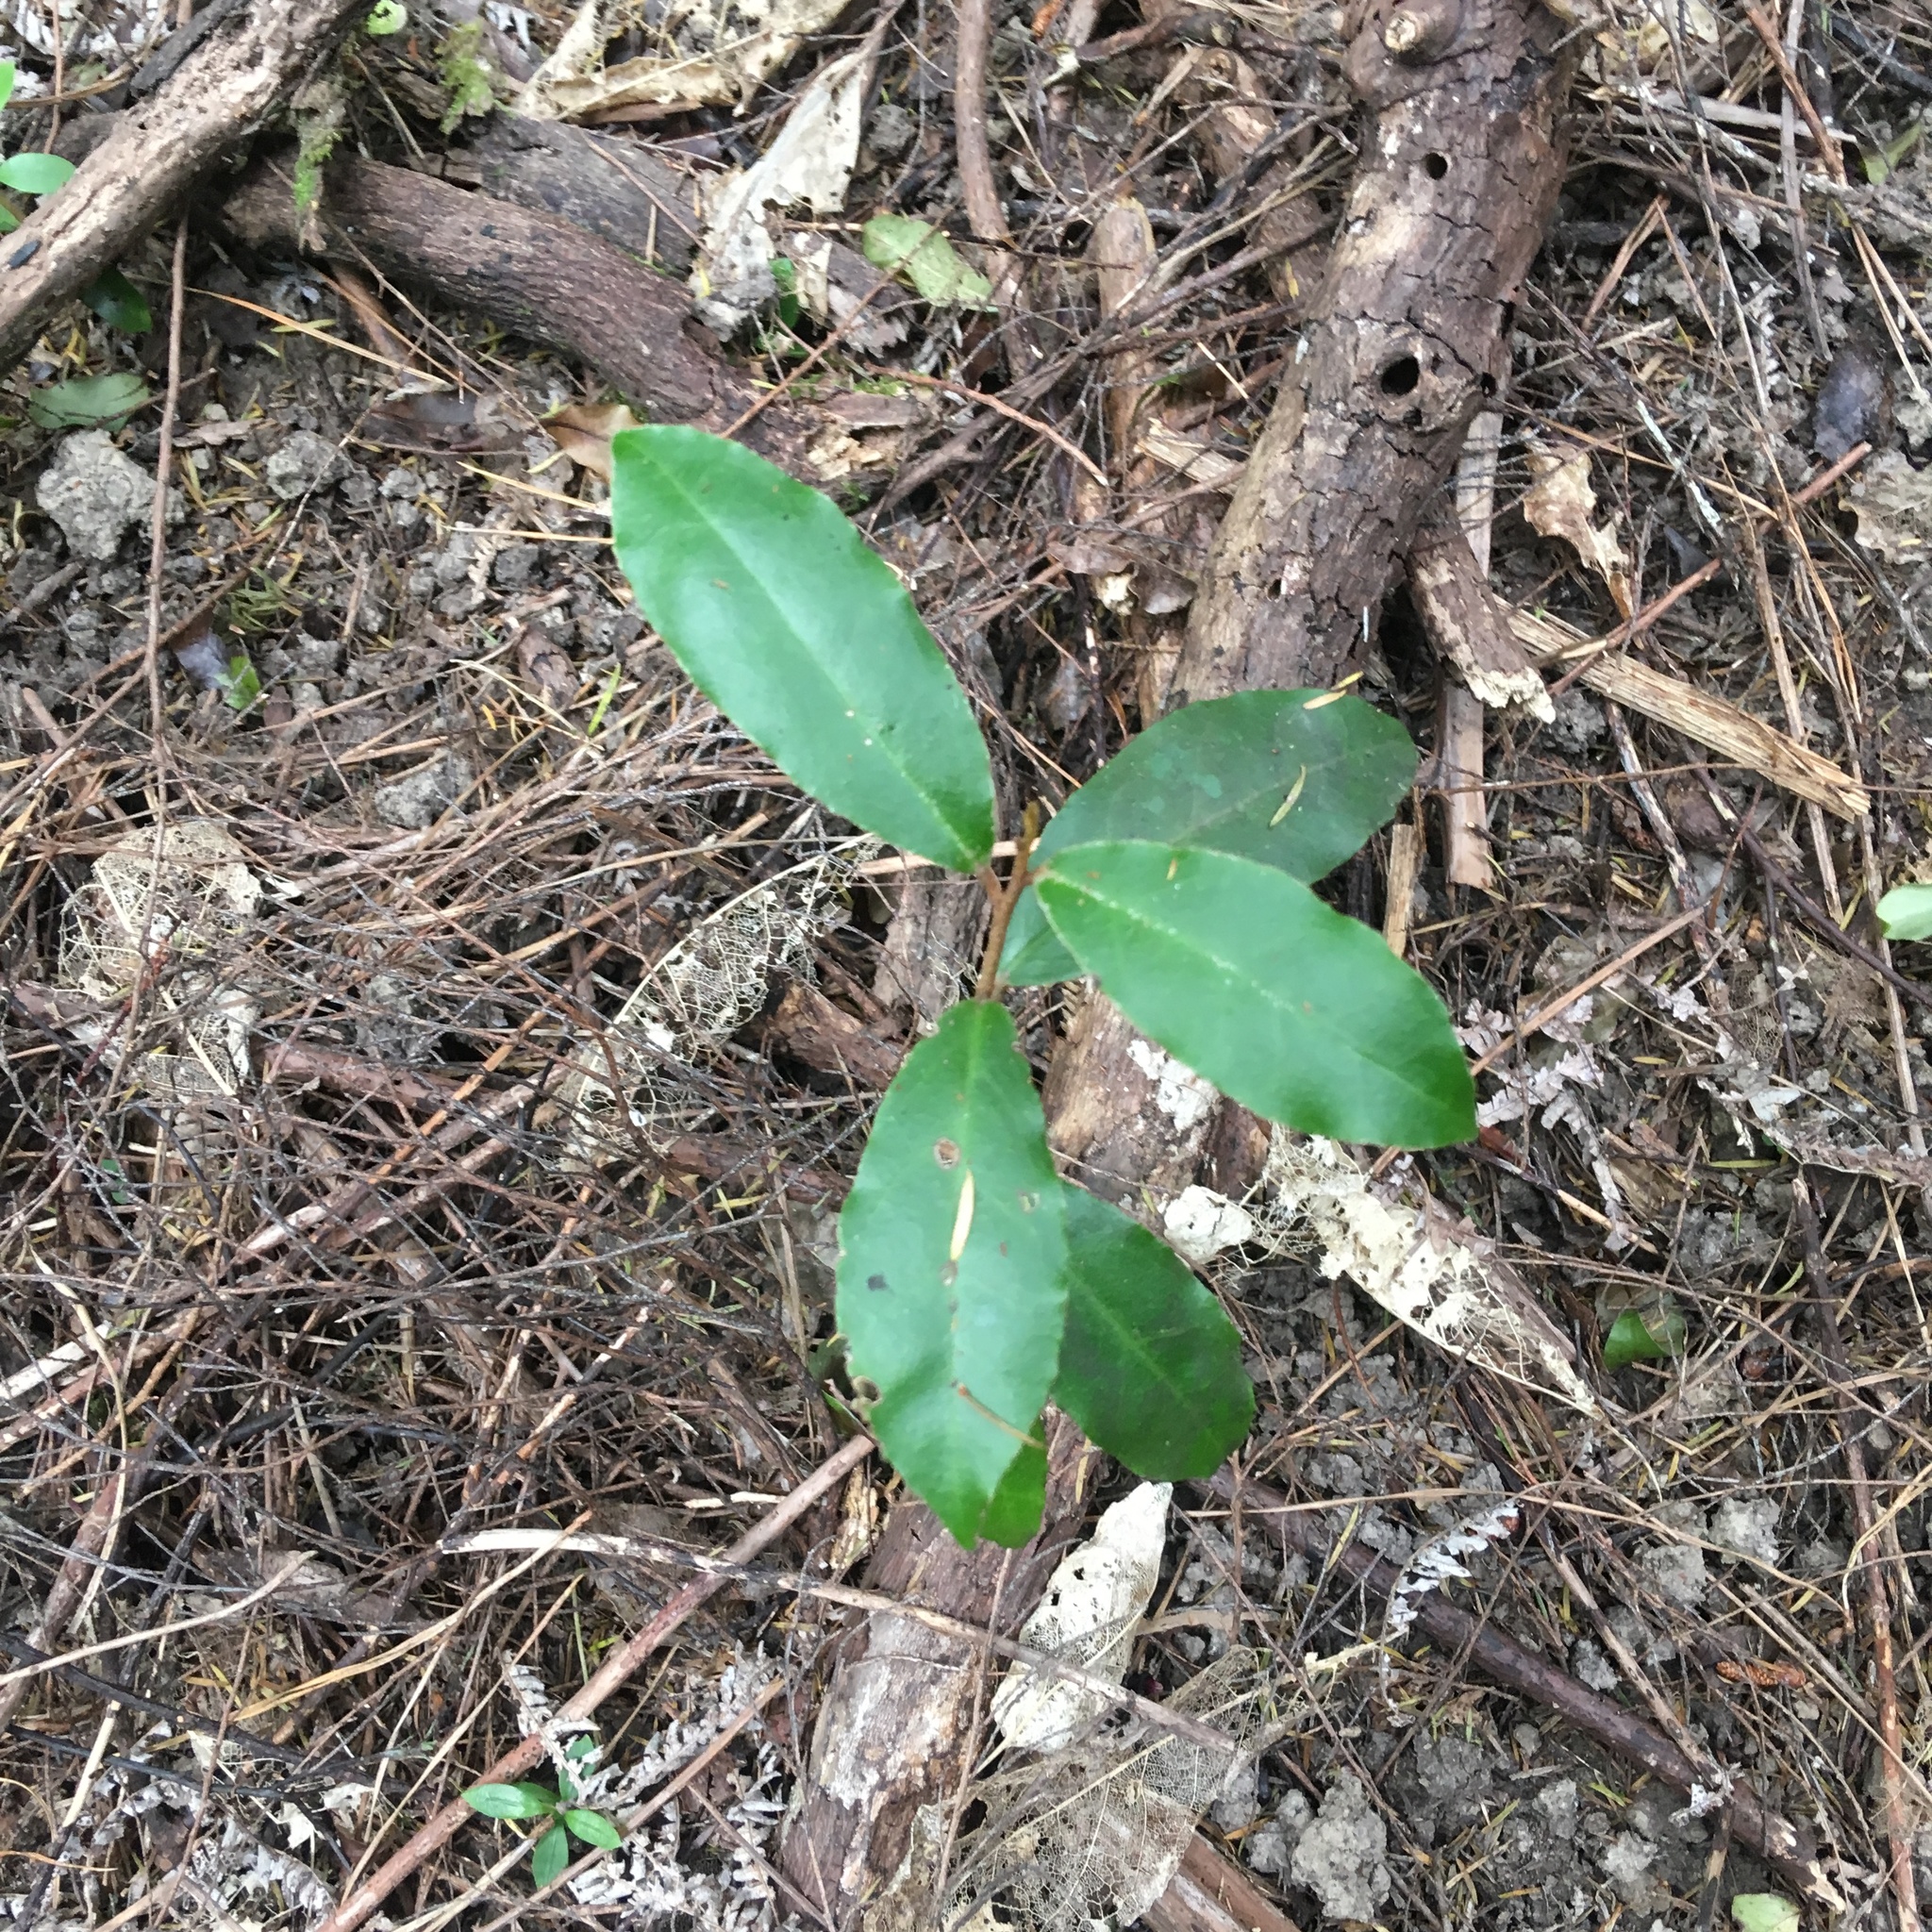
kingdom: Plantae
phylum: Tracheophyta
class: Magnoliopsida
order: Rosales
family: Elaeagnaceae
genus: Elaeagnus
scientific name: Elaeagnus reflexa
